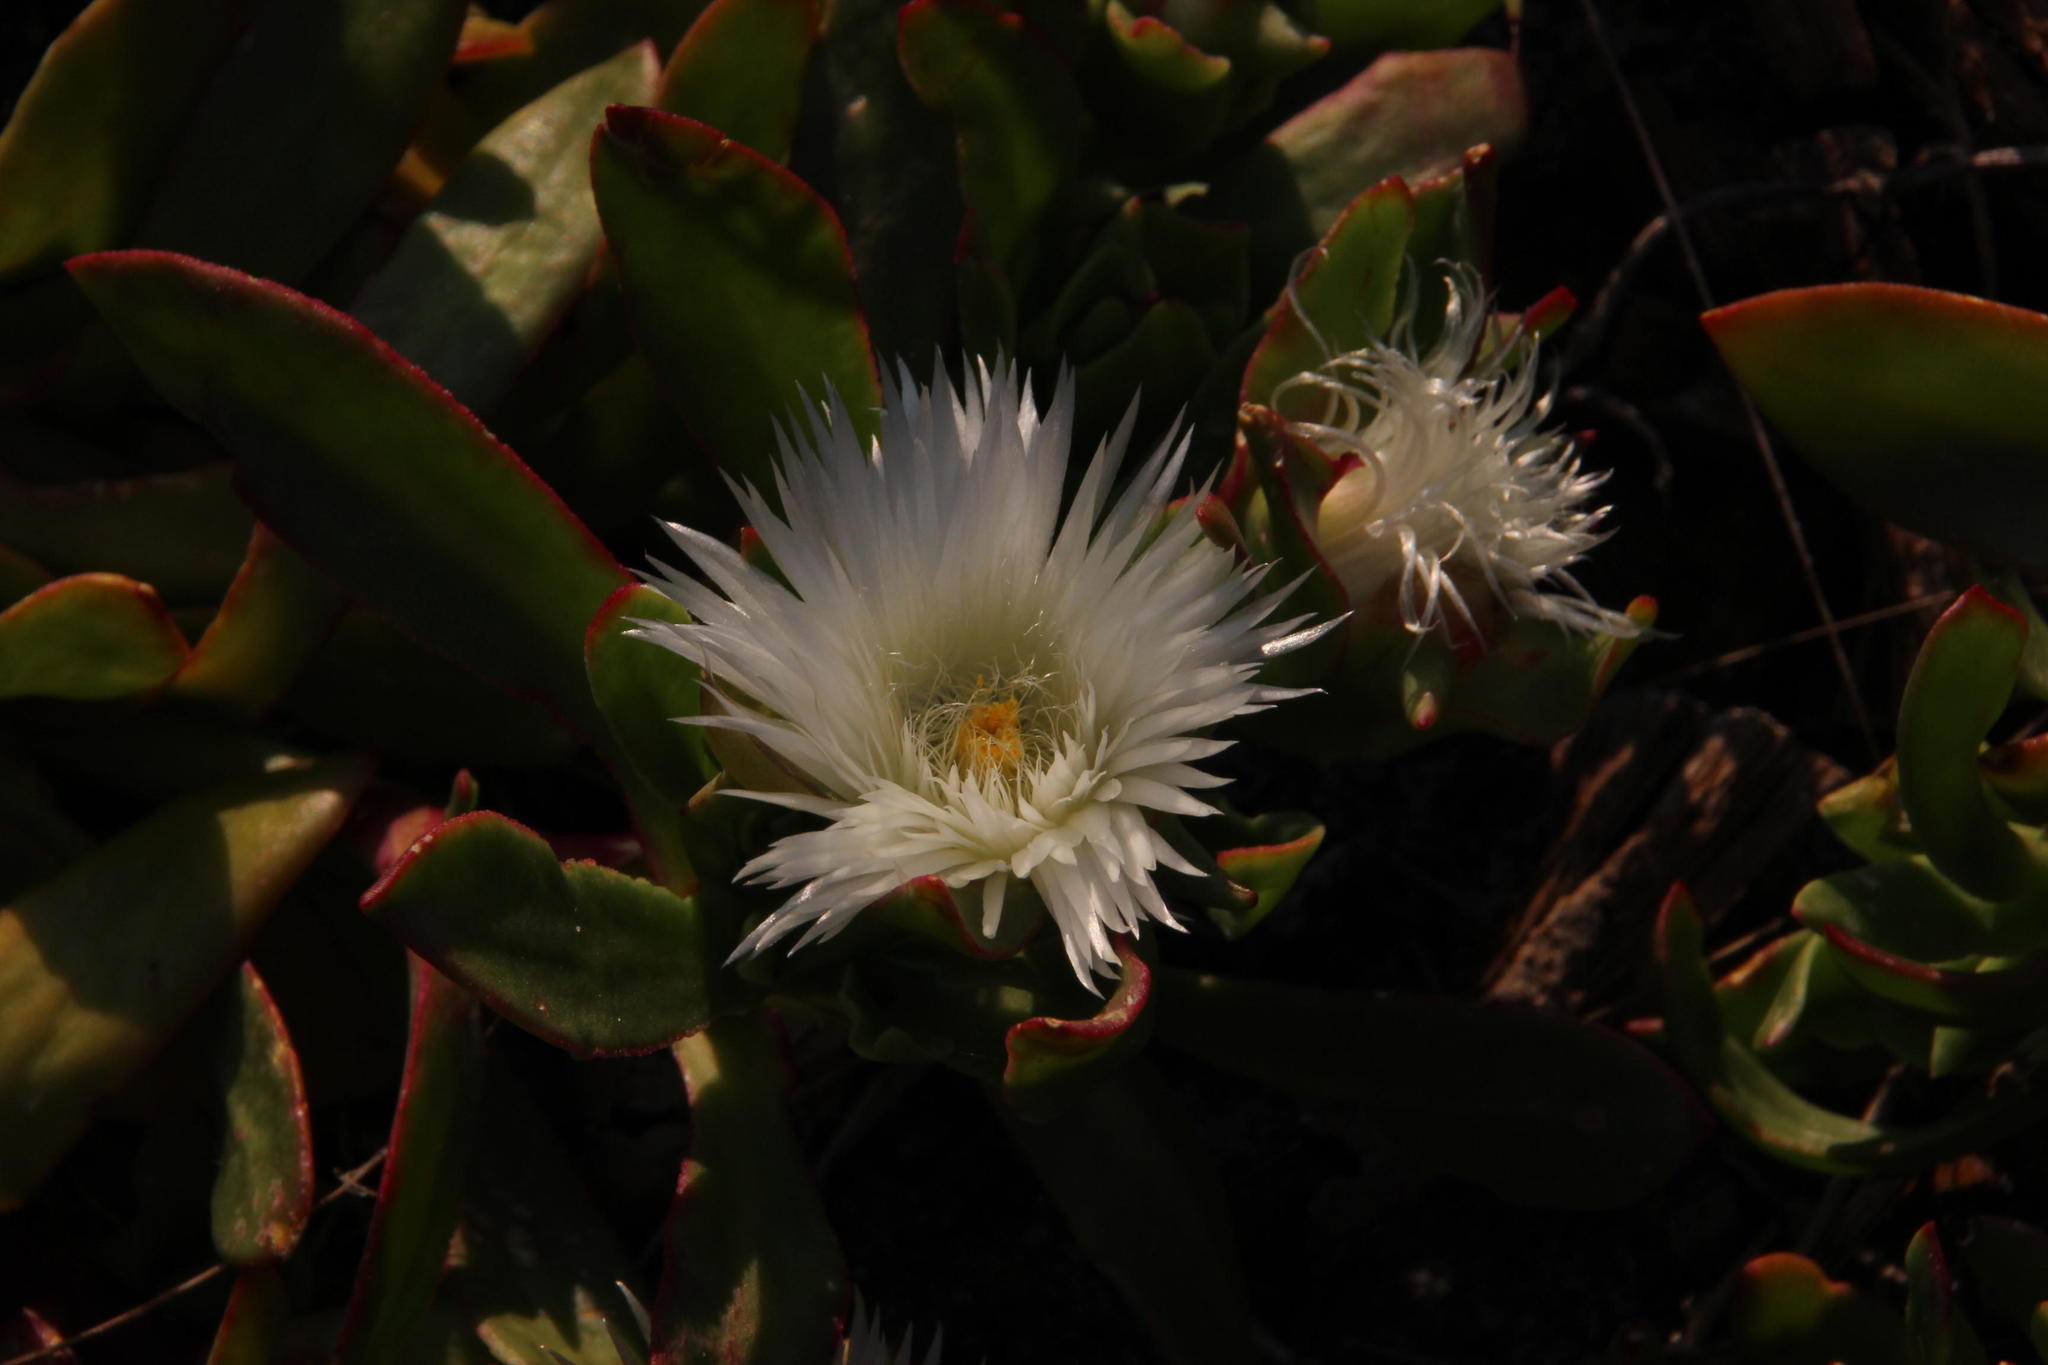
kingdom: Plantae
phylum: Tracheophyta
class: Magnoliopsida
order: Caryophyllales
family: Aizoaceae
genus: Skiatophytum
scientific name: Skiatophytum tripolium
